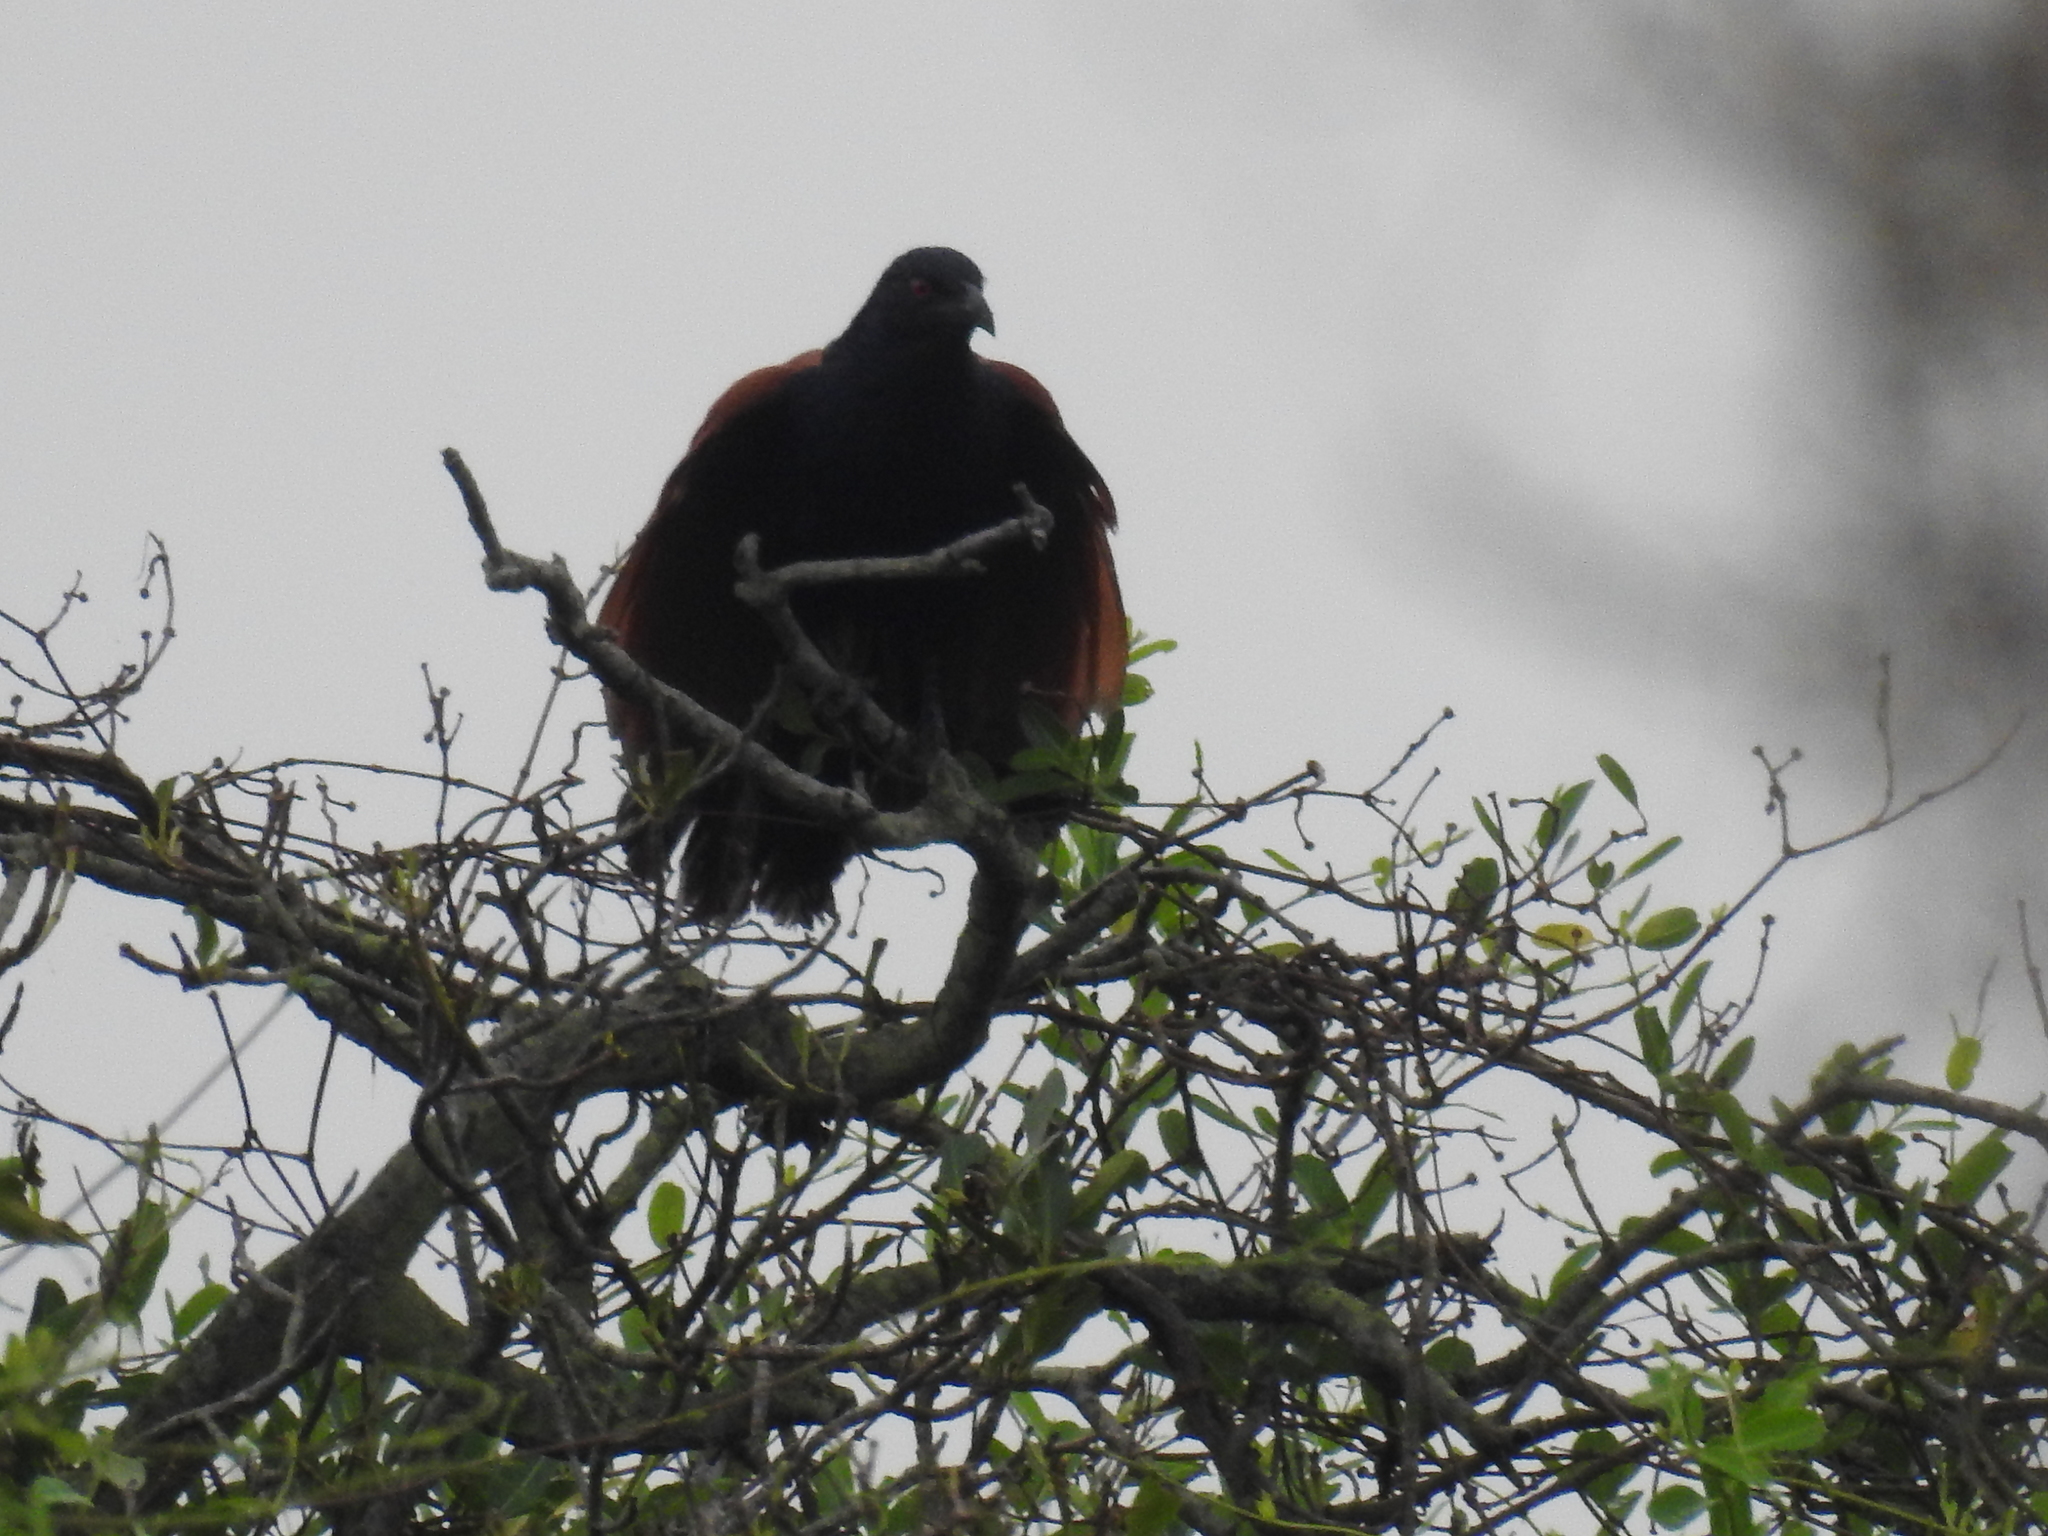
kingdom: Animalia
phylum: Chordata
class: Aves
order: Cuculiformes
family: Cuculidae
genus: Centropus
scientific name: Centropus sinensis
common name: Greater coucal
